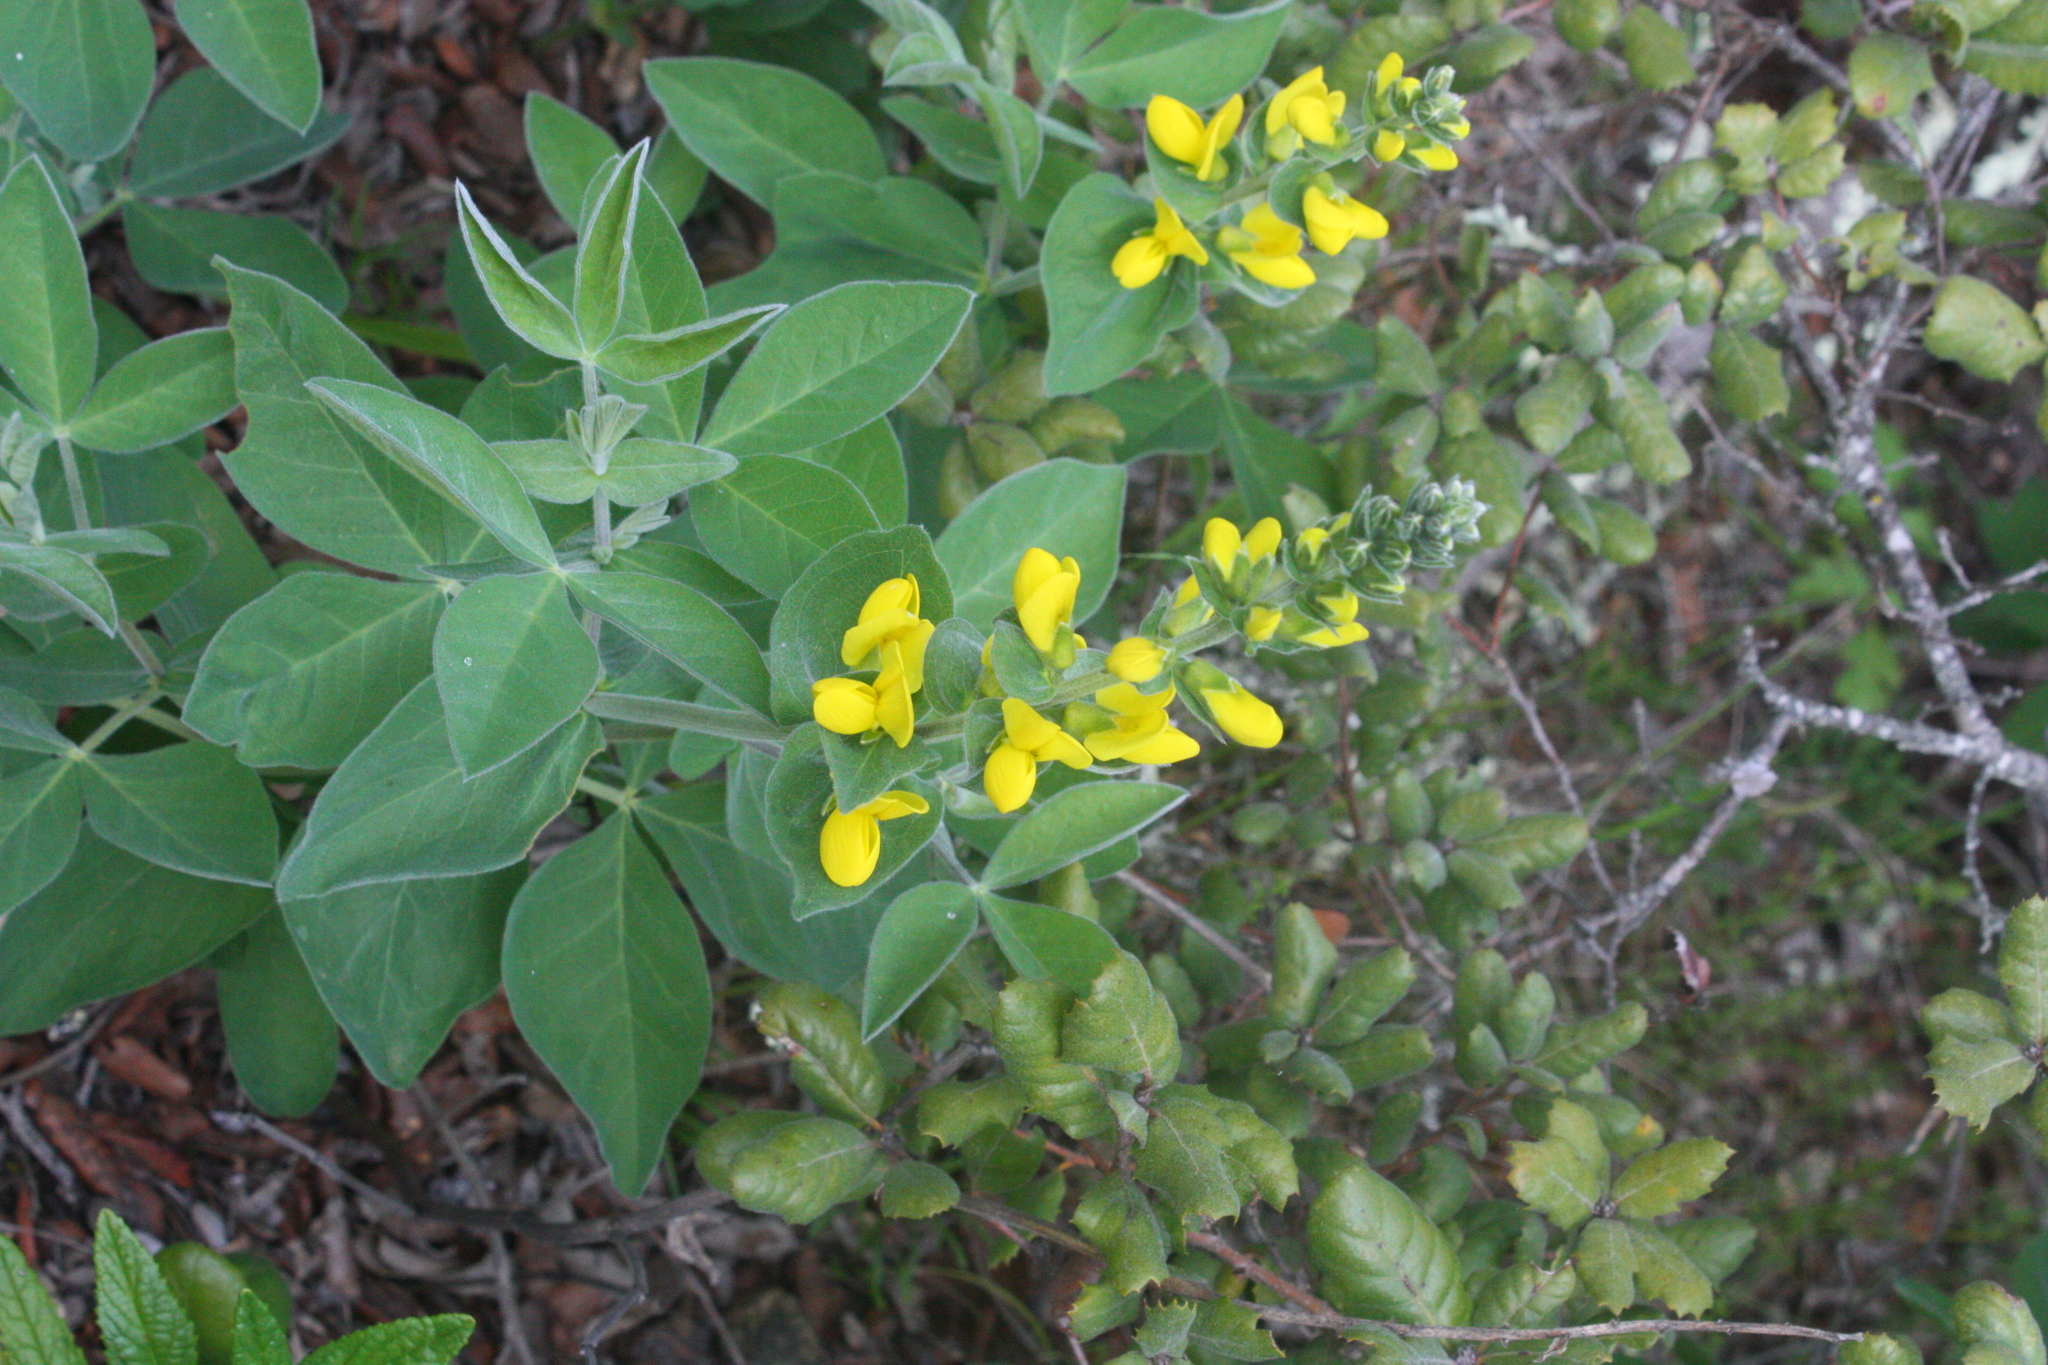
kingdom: Plantae
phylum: Tracheophyta
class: Magnoliopsida
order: Fabales
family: Fabaceae
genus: Thermopsis
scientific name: Thermopsis californica
